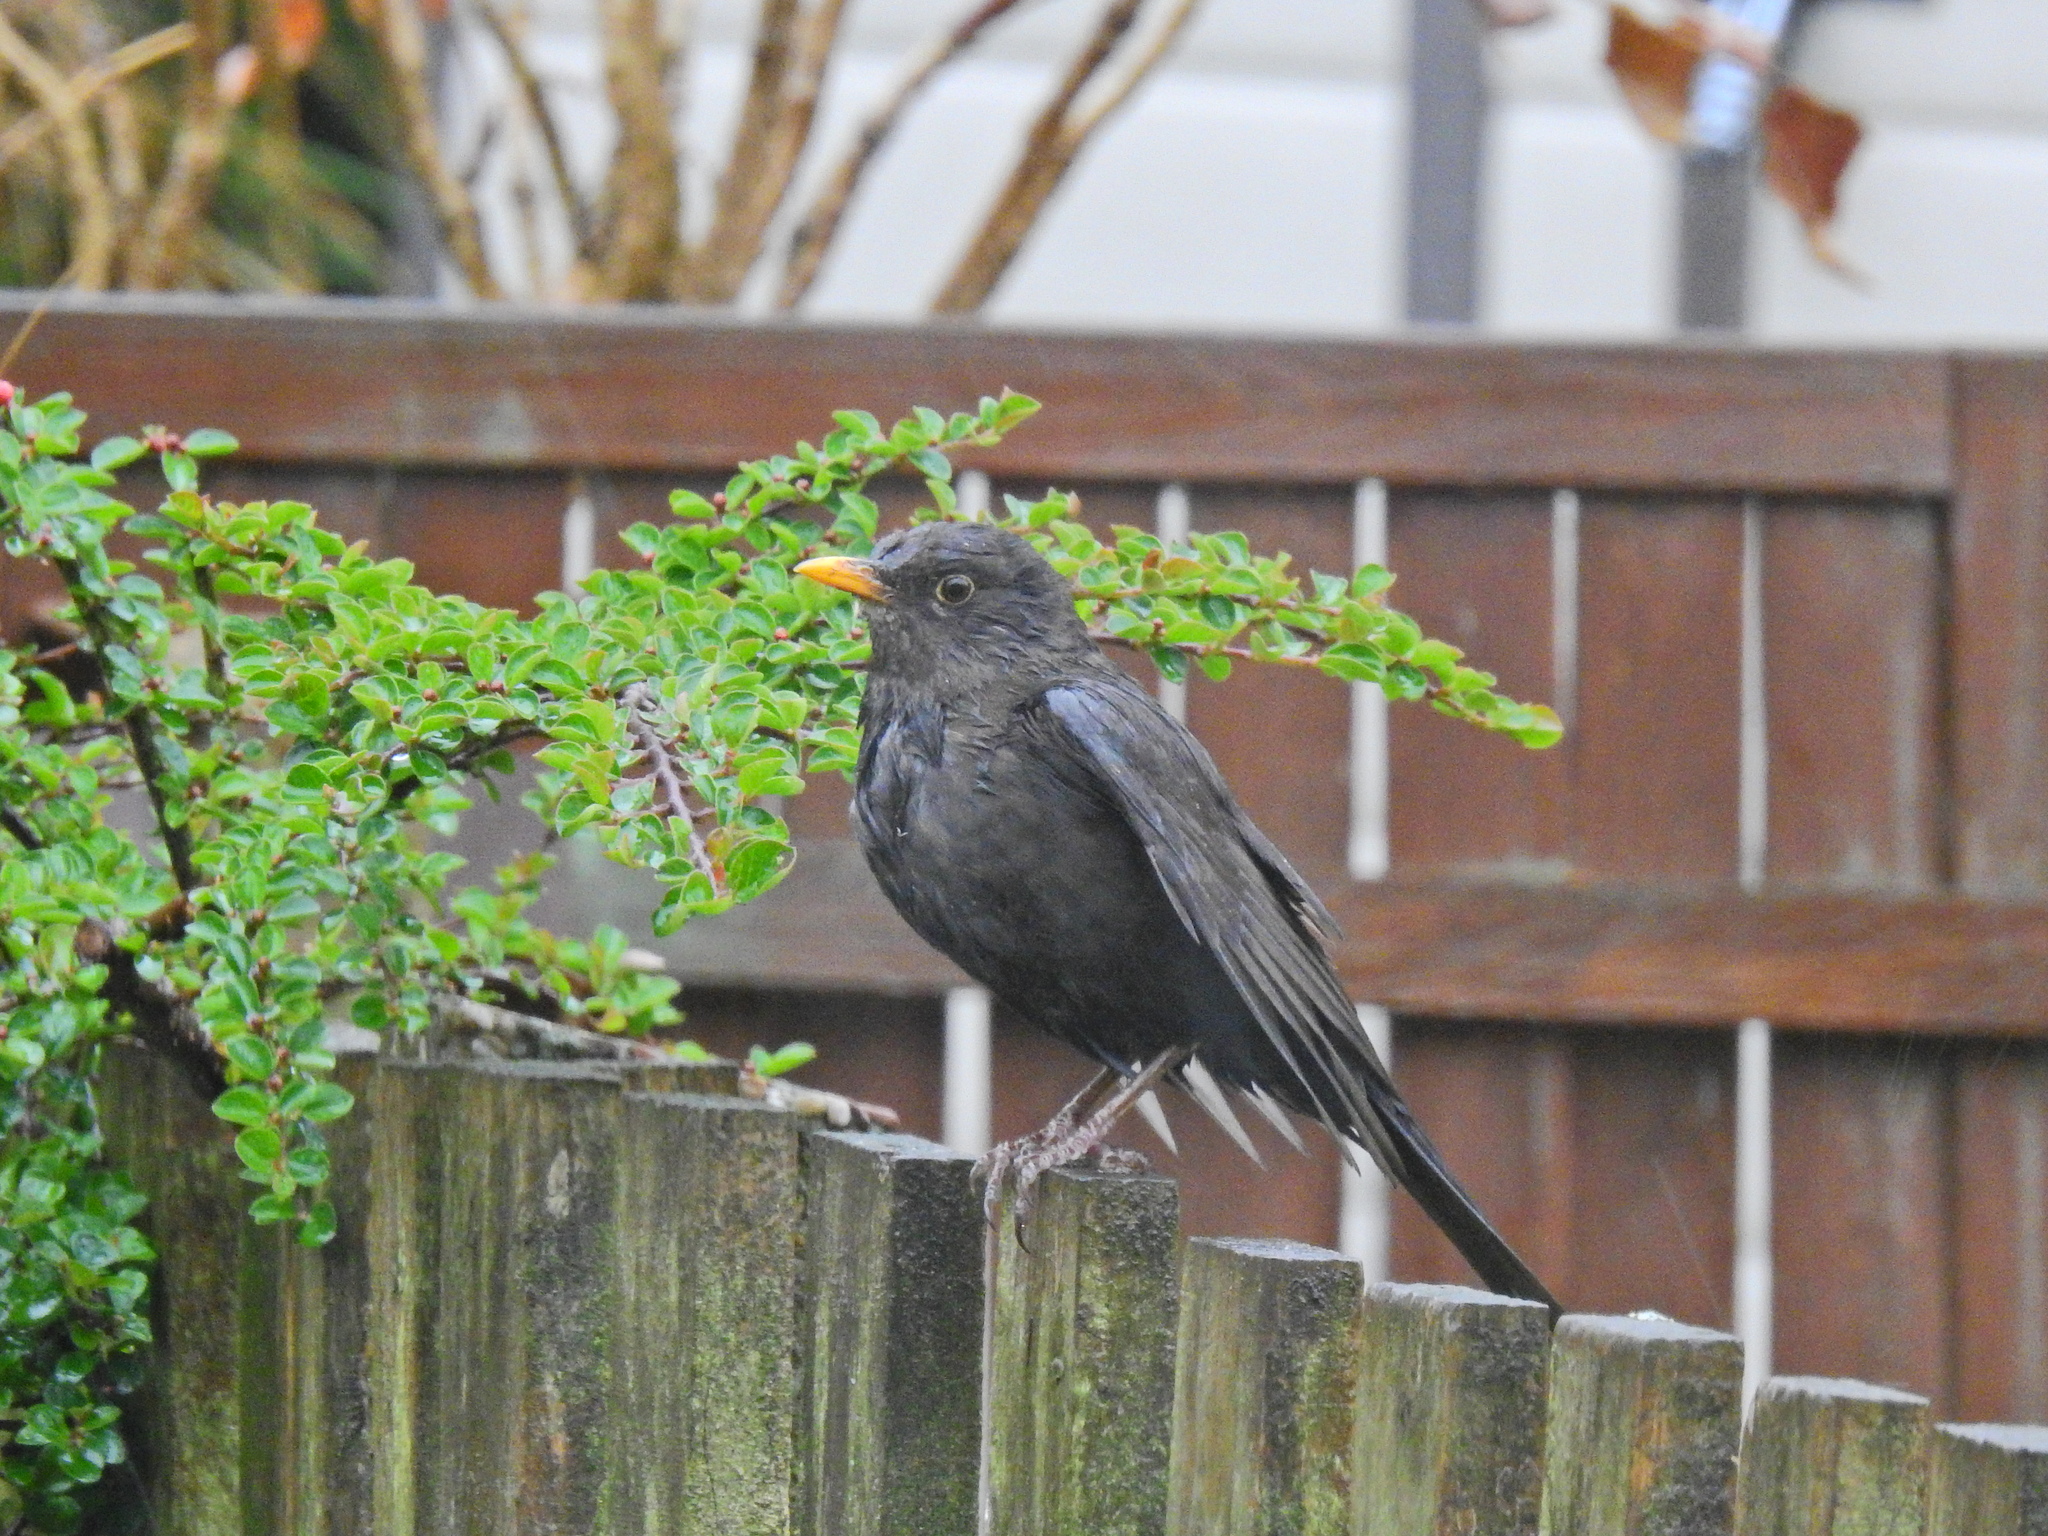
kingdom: Animalia
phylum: Chordata
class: Aves
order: Passeriformes
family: Turdidae
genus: Turdus
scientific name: Turdus merula
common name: Common blackbird
